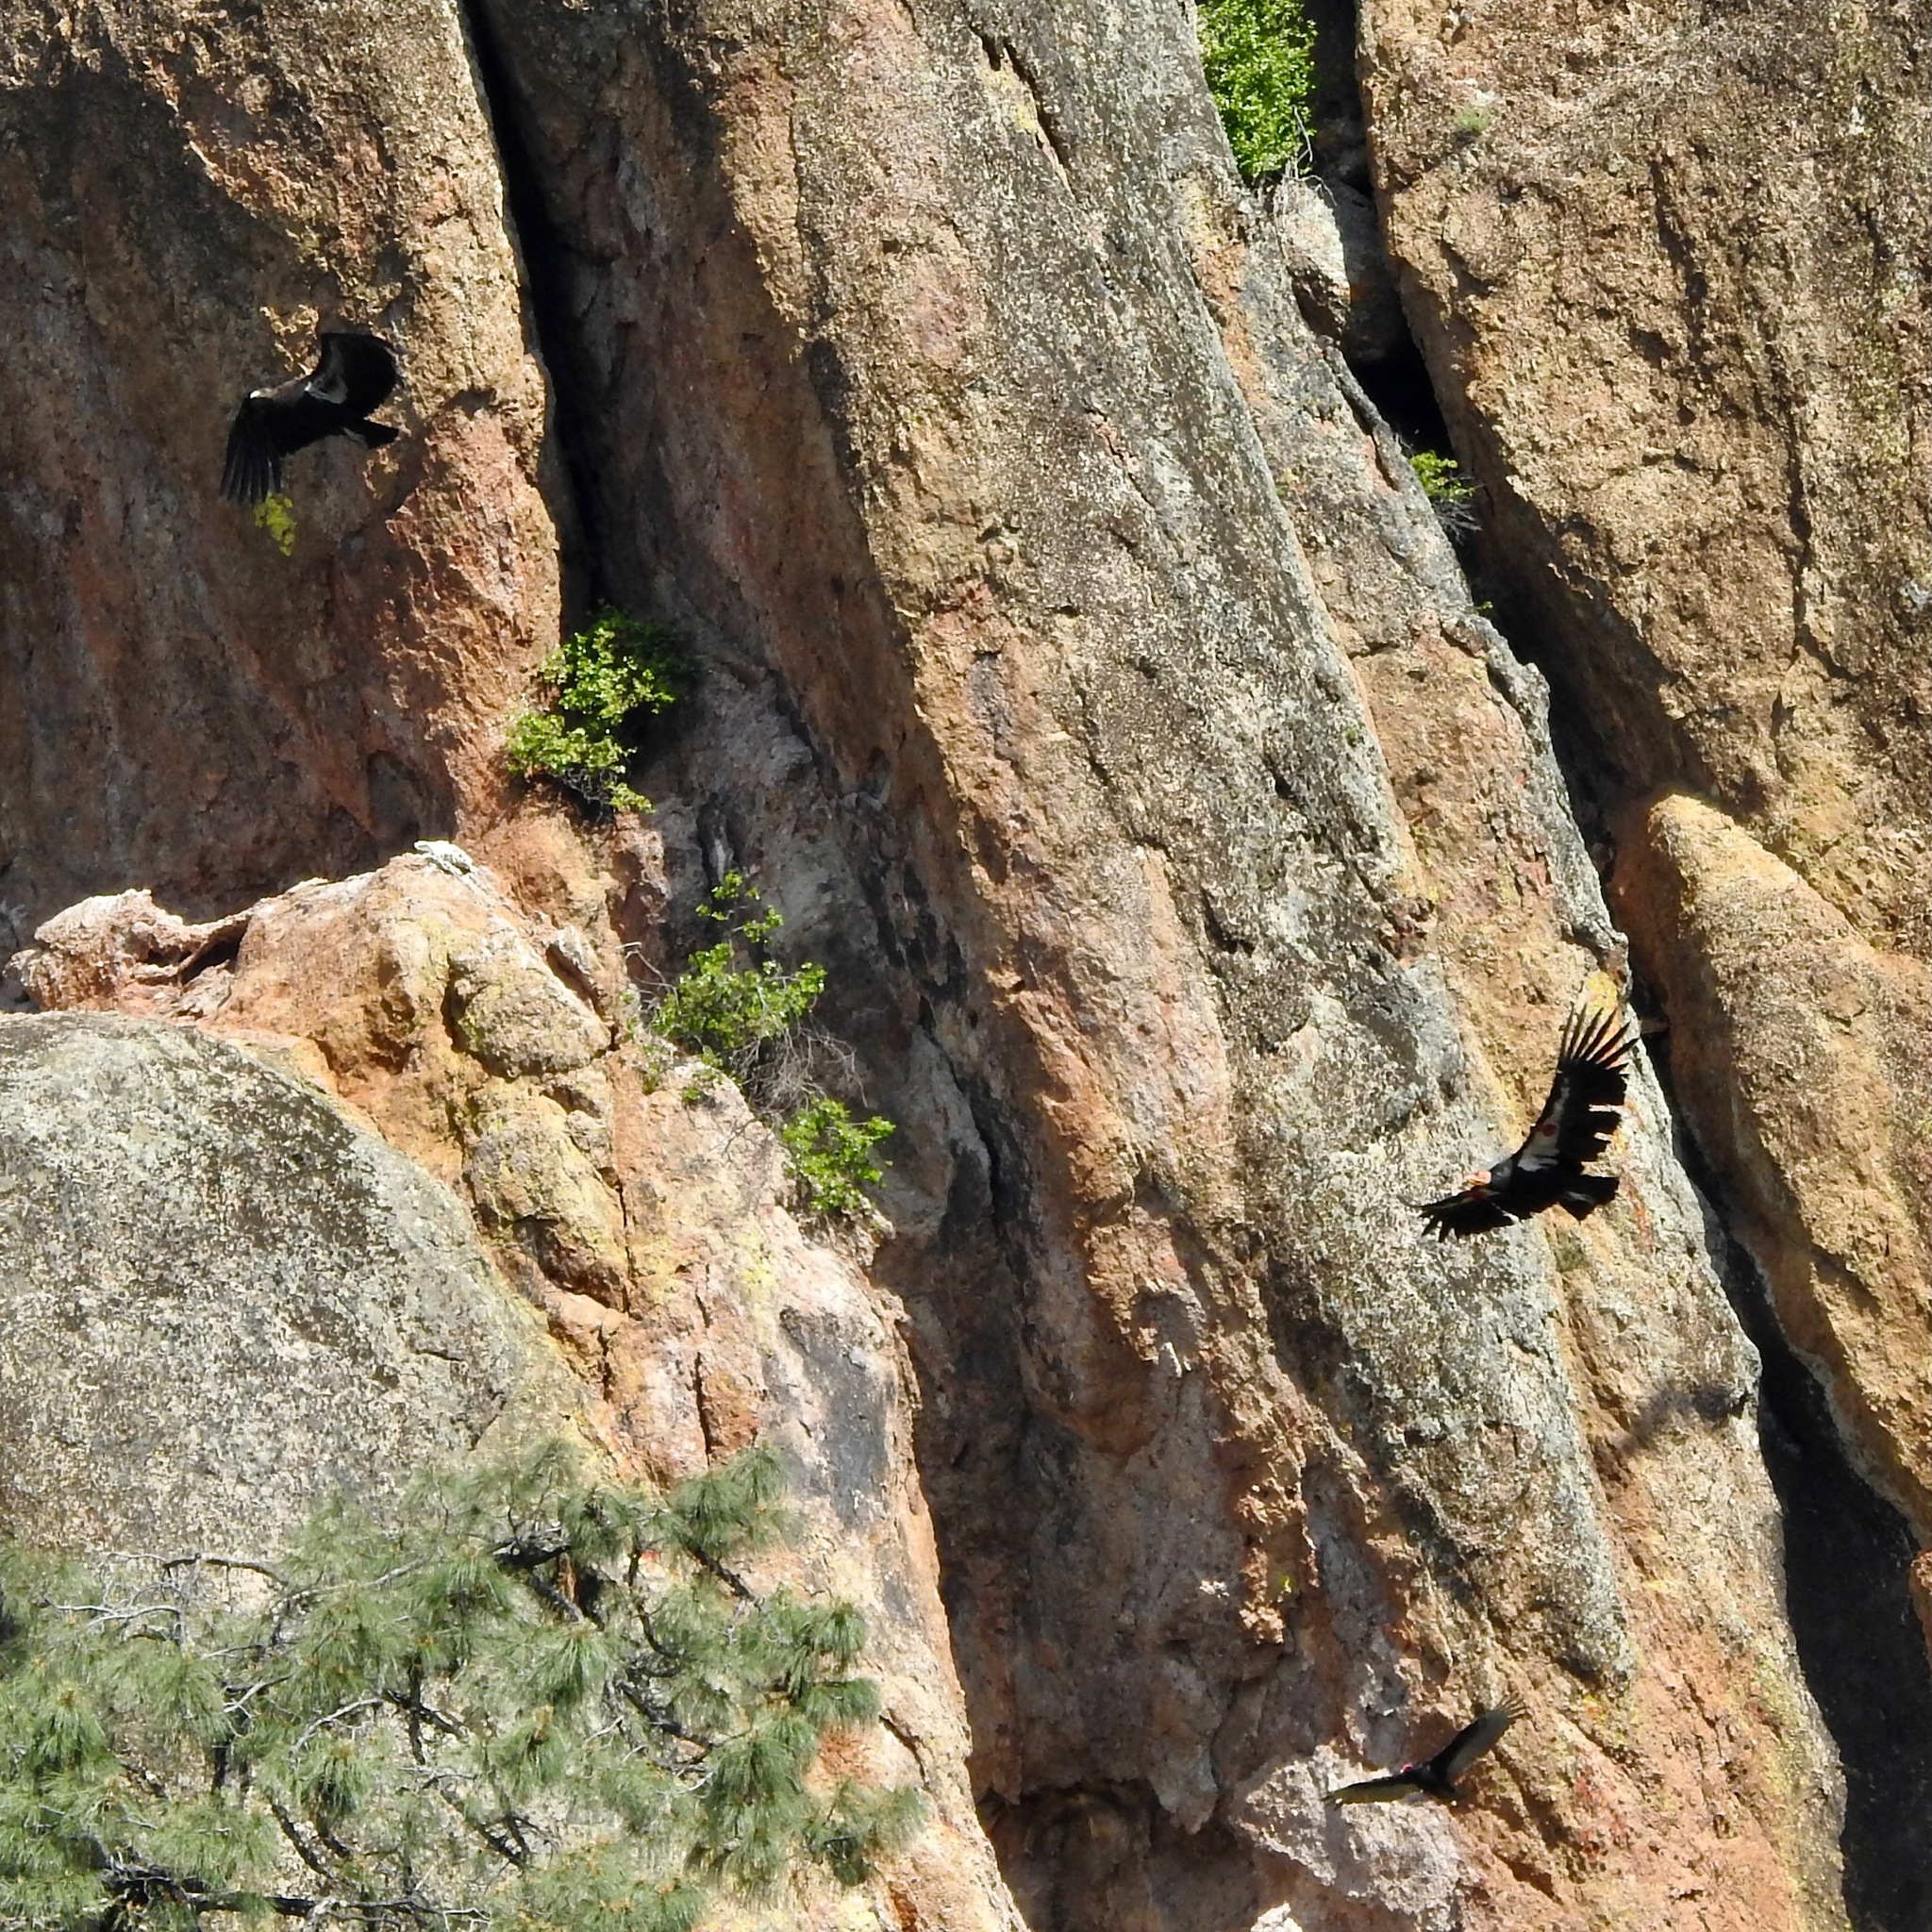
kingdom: Animalia
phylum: Chordata
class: Aves
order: Accipitriformes
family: Cathartidae
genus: Gymnogyps
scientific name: Gymnogyps californianus
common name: California condor
